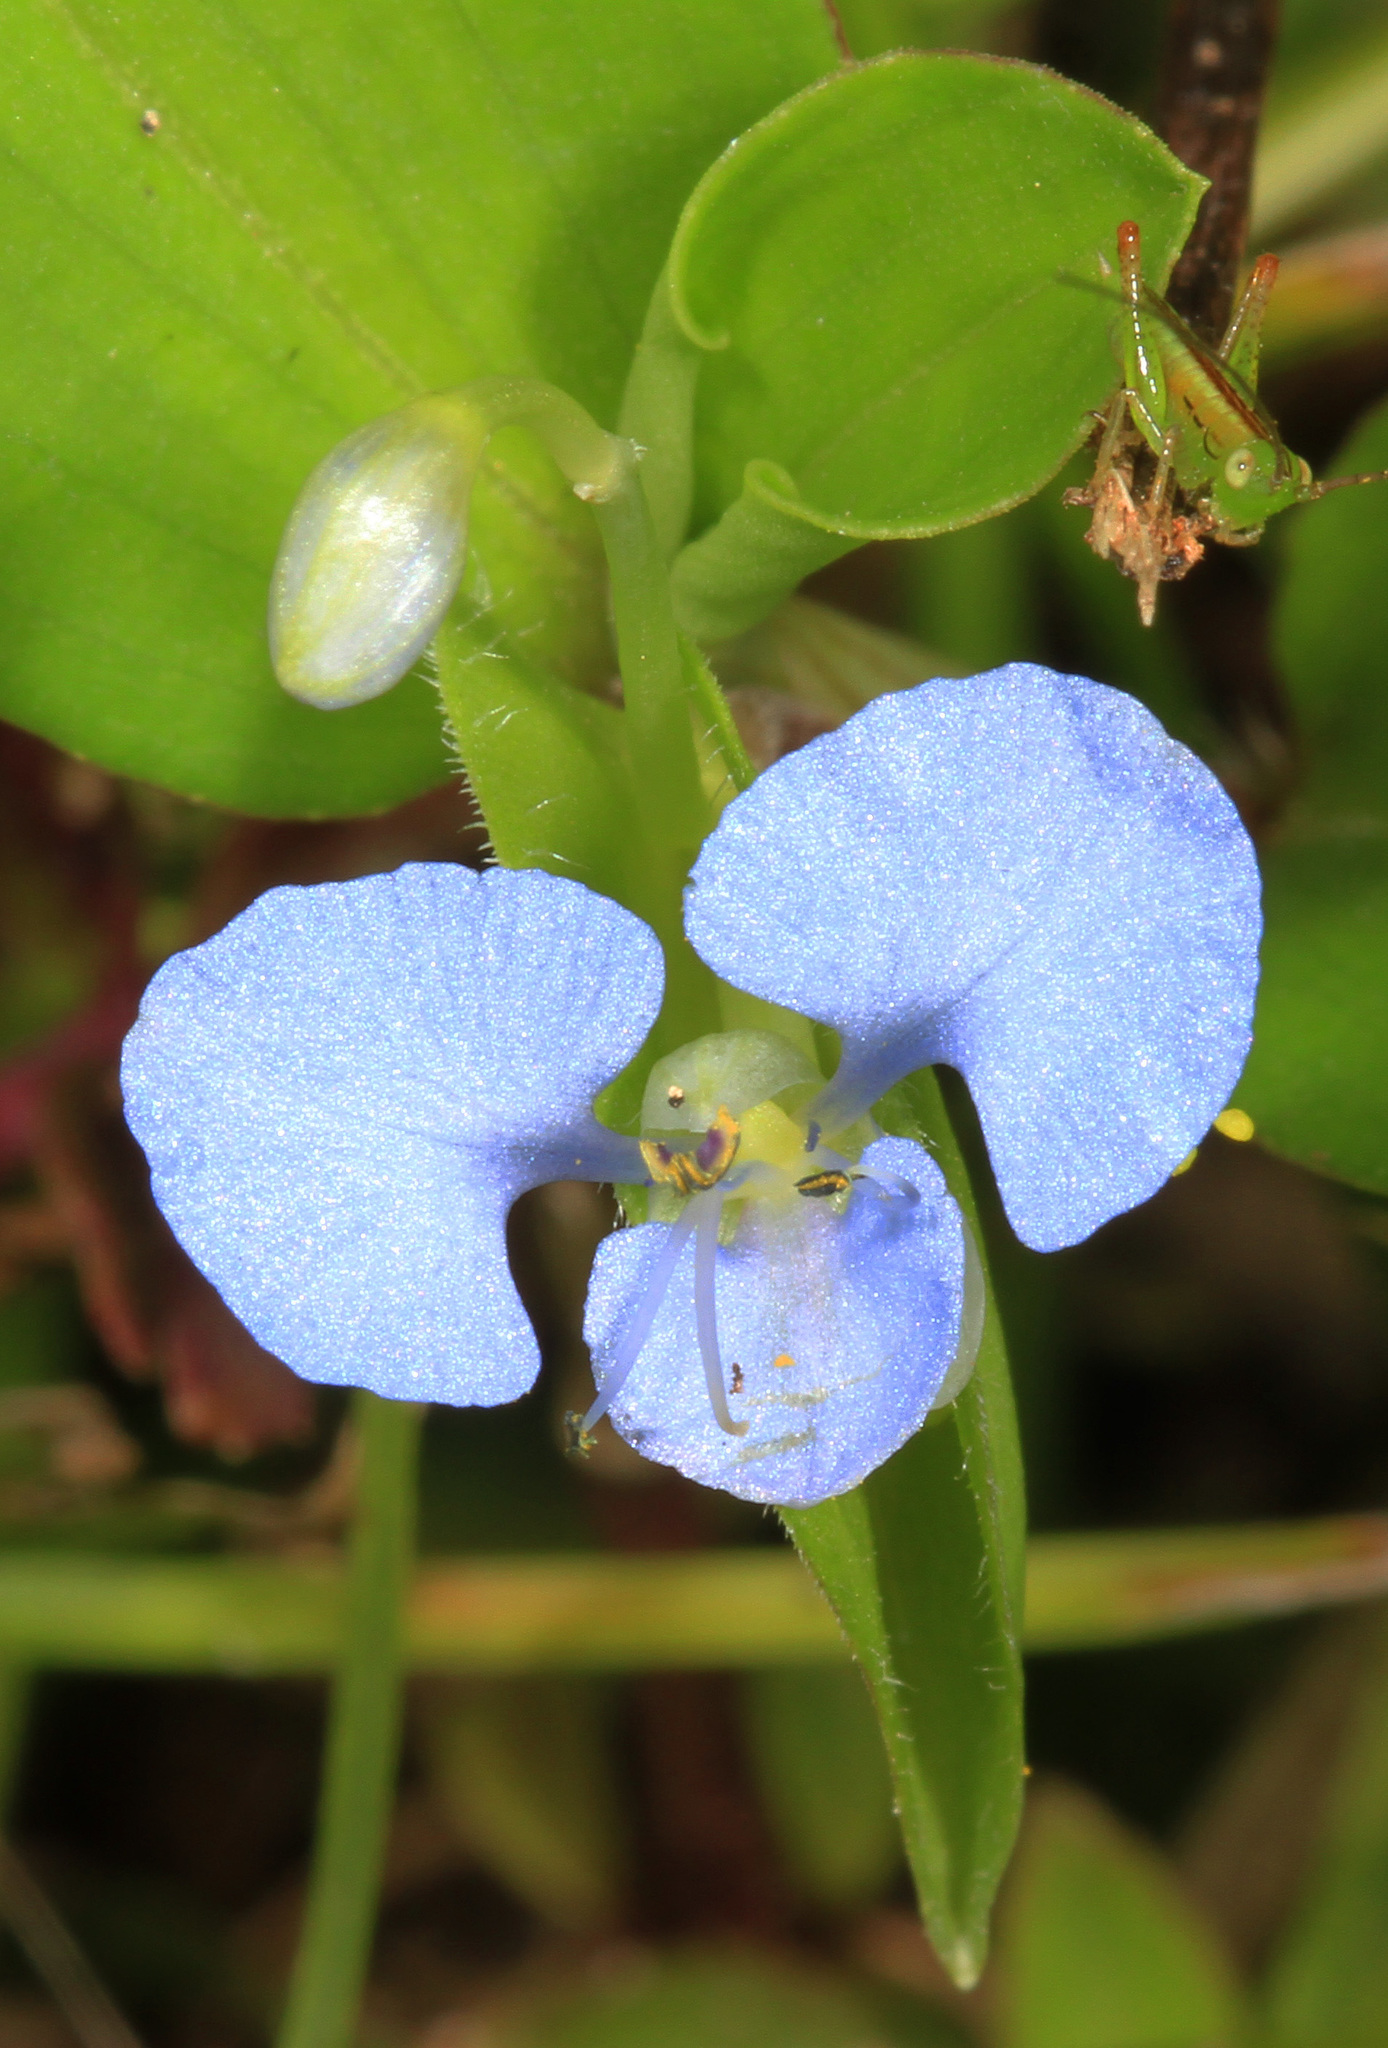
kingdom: Plantae
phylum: Tracheophyta
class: Liliopsida
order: Commelinales
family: Commelinaceae
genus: Commelina
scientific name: Commelina diffusa
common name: Climbing dayflower
